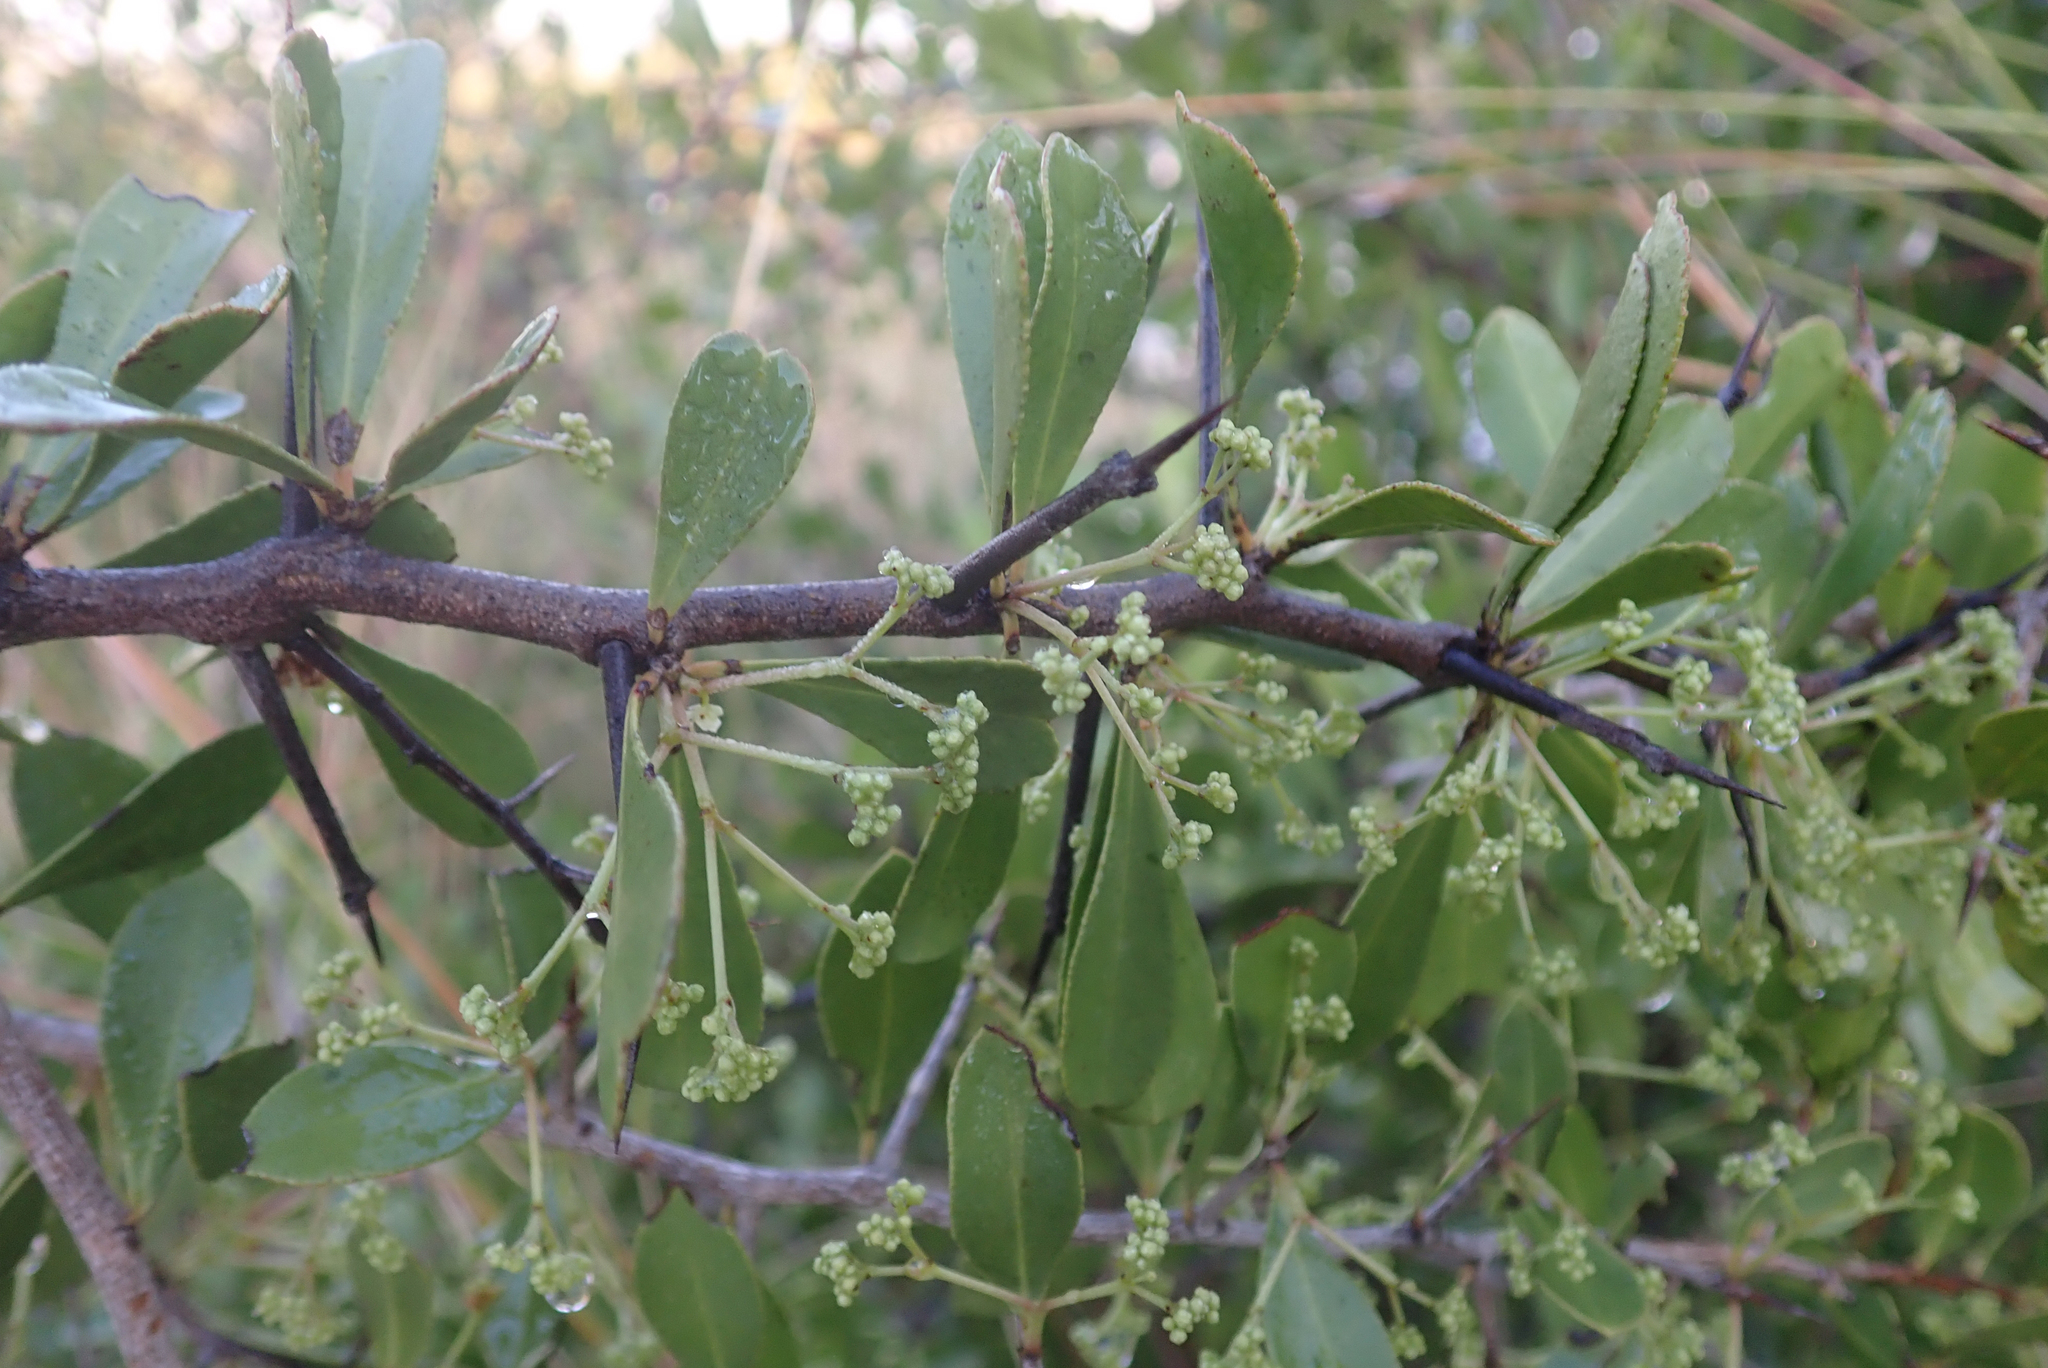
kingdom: Plantae
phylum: Tracheophyta
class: Magnoliopsida
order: Celastrales
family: Celastraceae
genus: Gymnosporia
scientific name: Gymnosporia senegalensis
